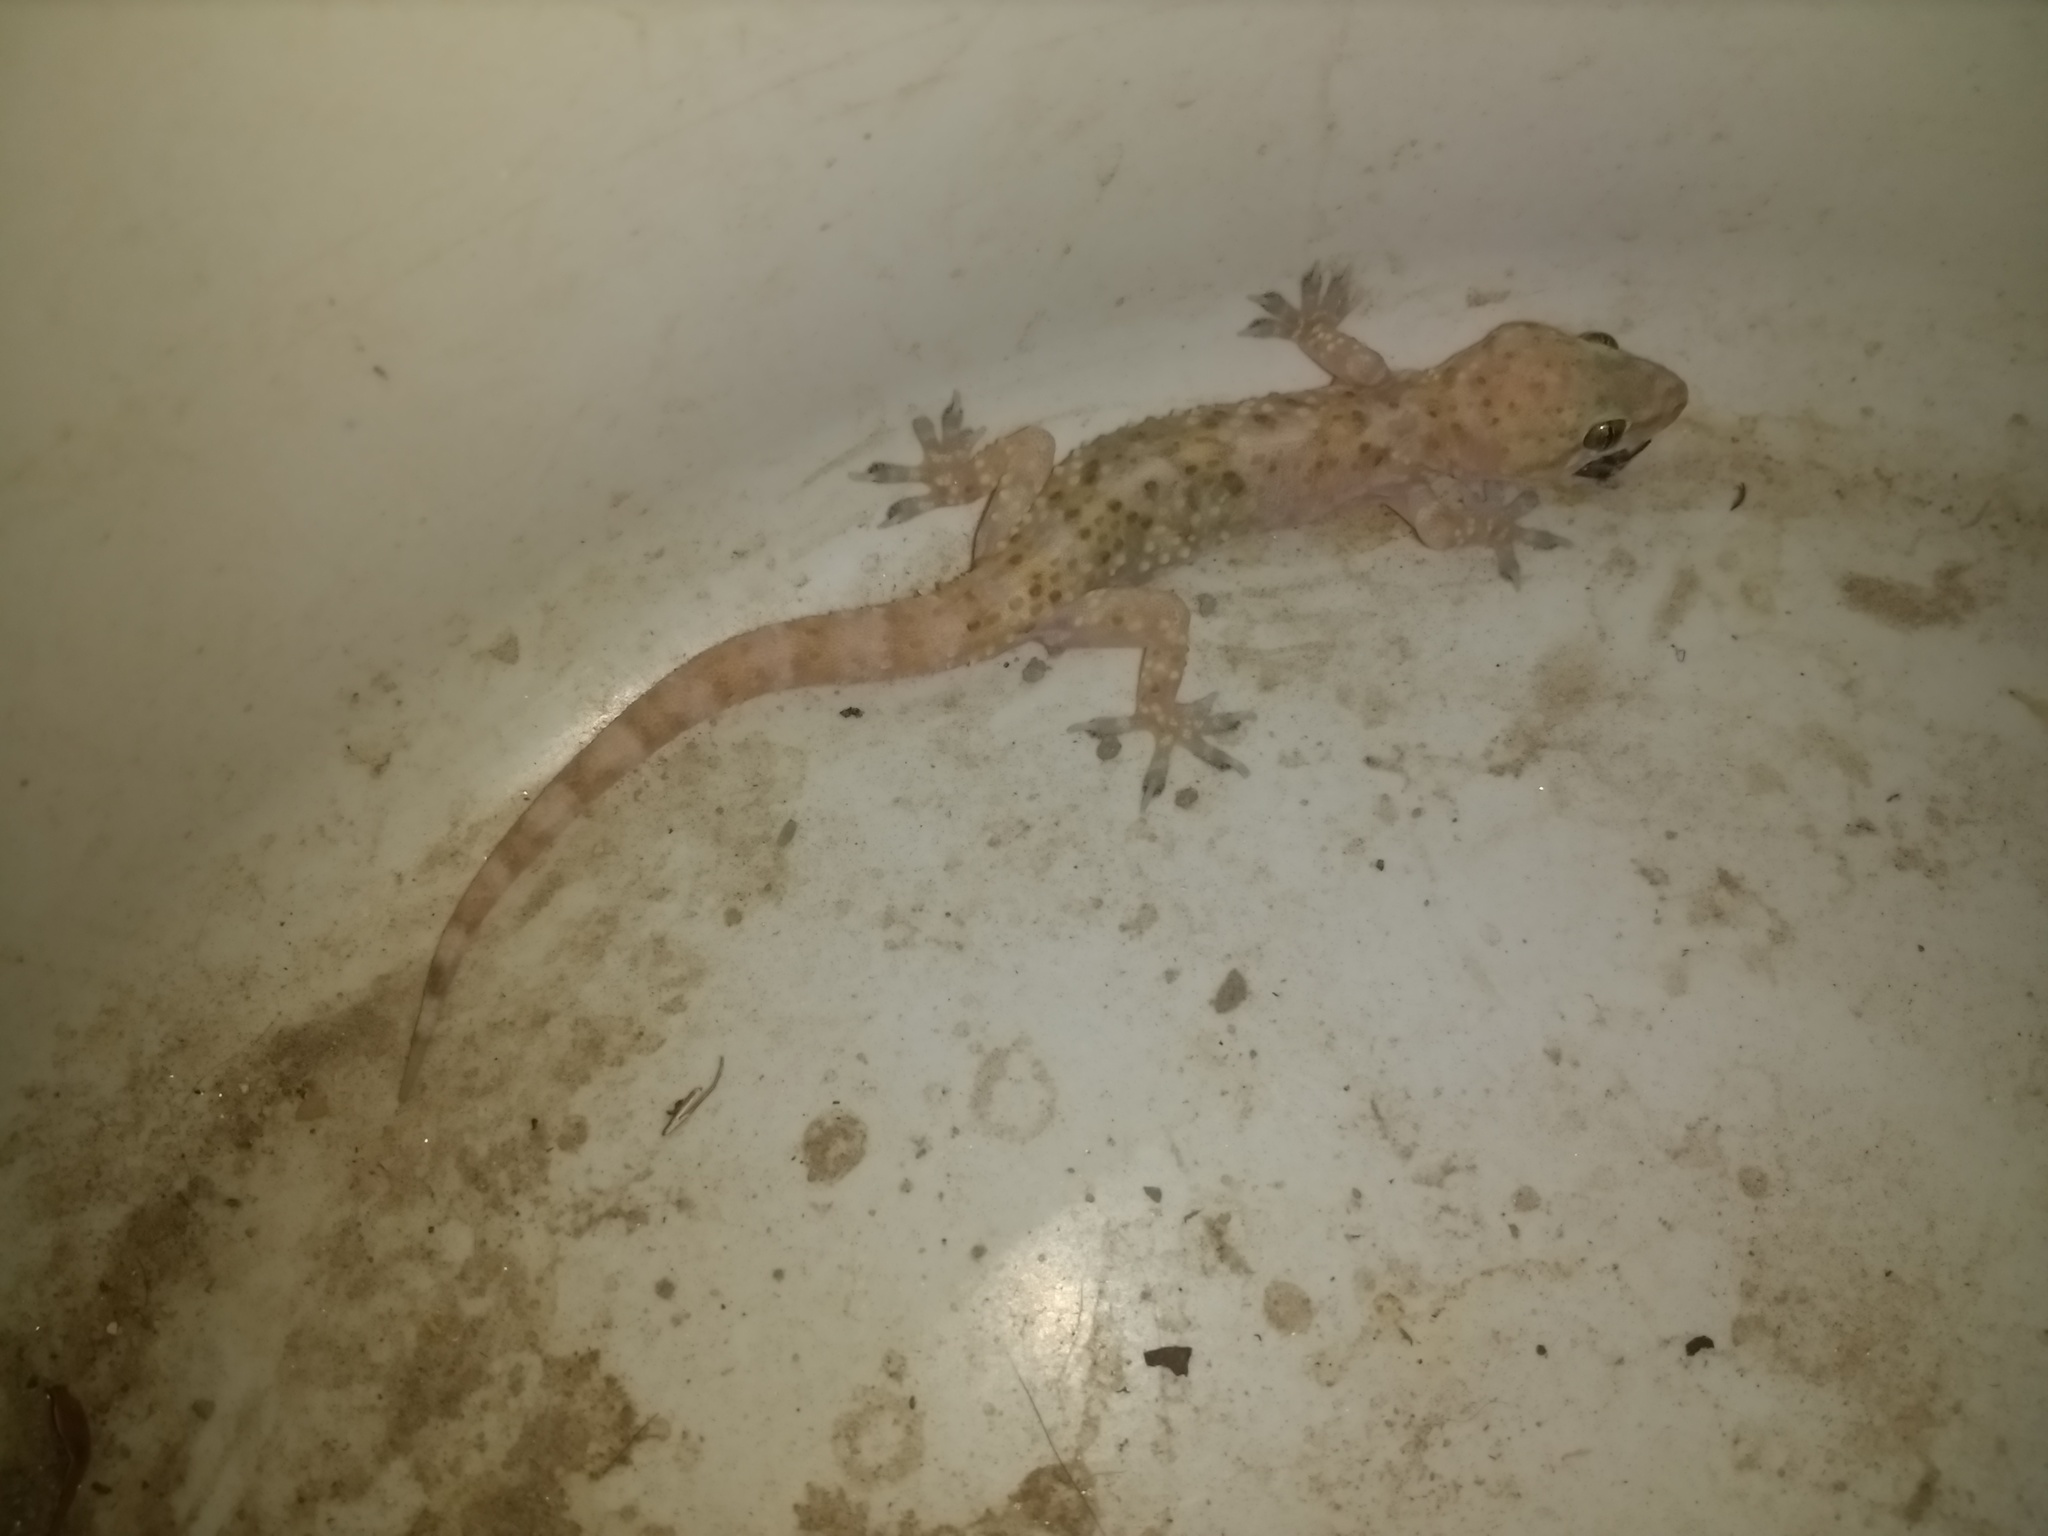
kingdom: Animalia
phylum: Chordata
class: Squamata
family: Gekkonidae
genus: Hemidactylus
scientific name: Hemidactylus turcicus
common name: Turkish gecko
